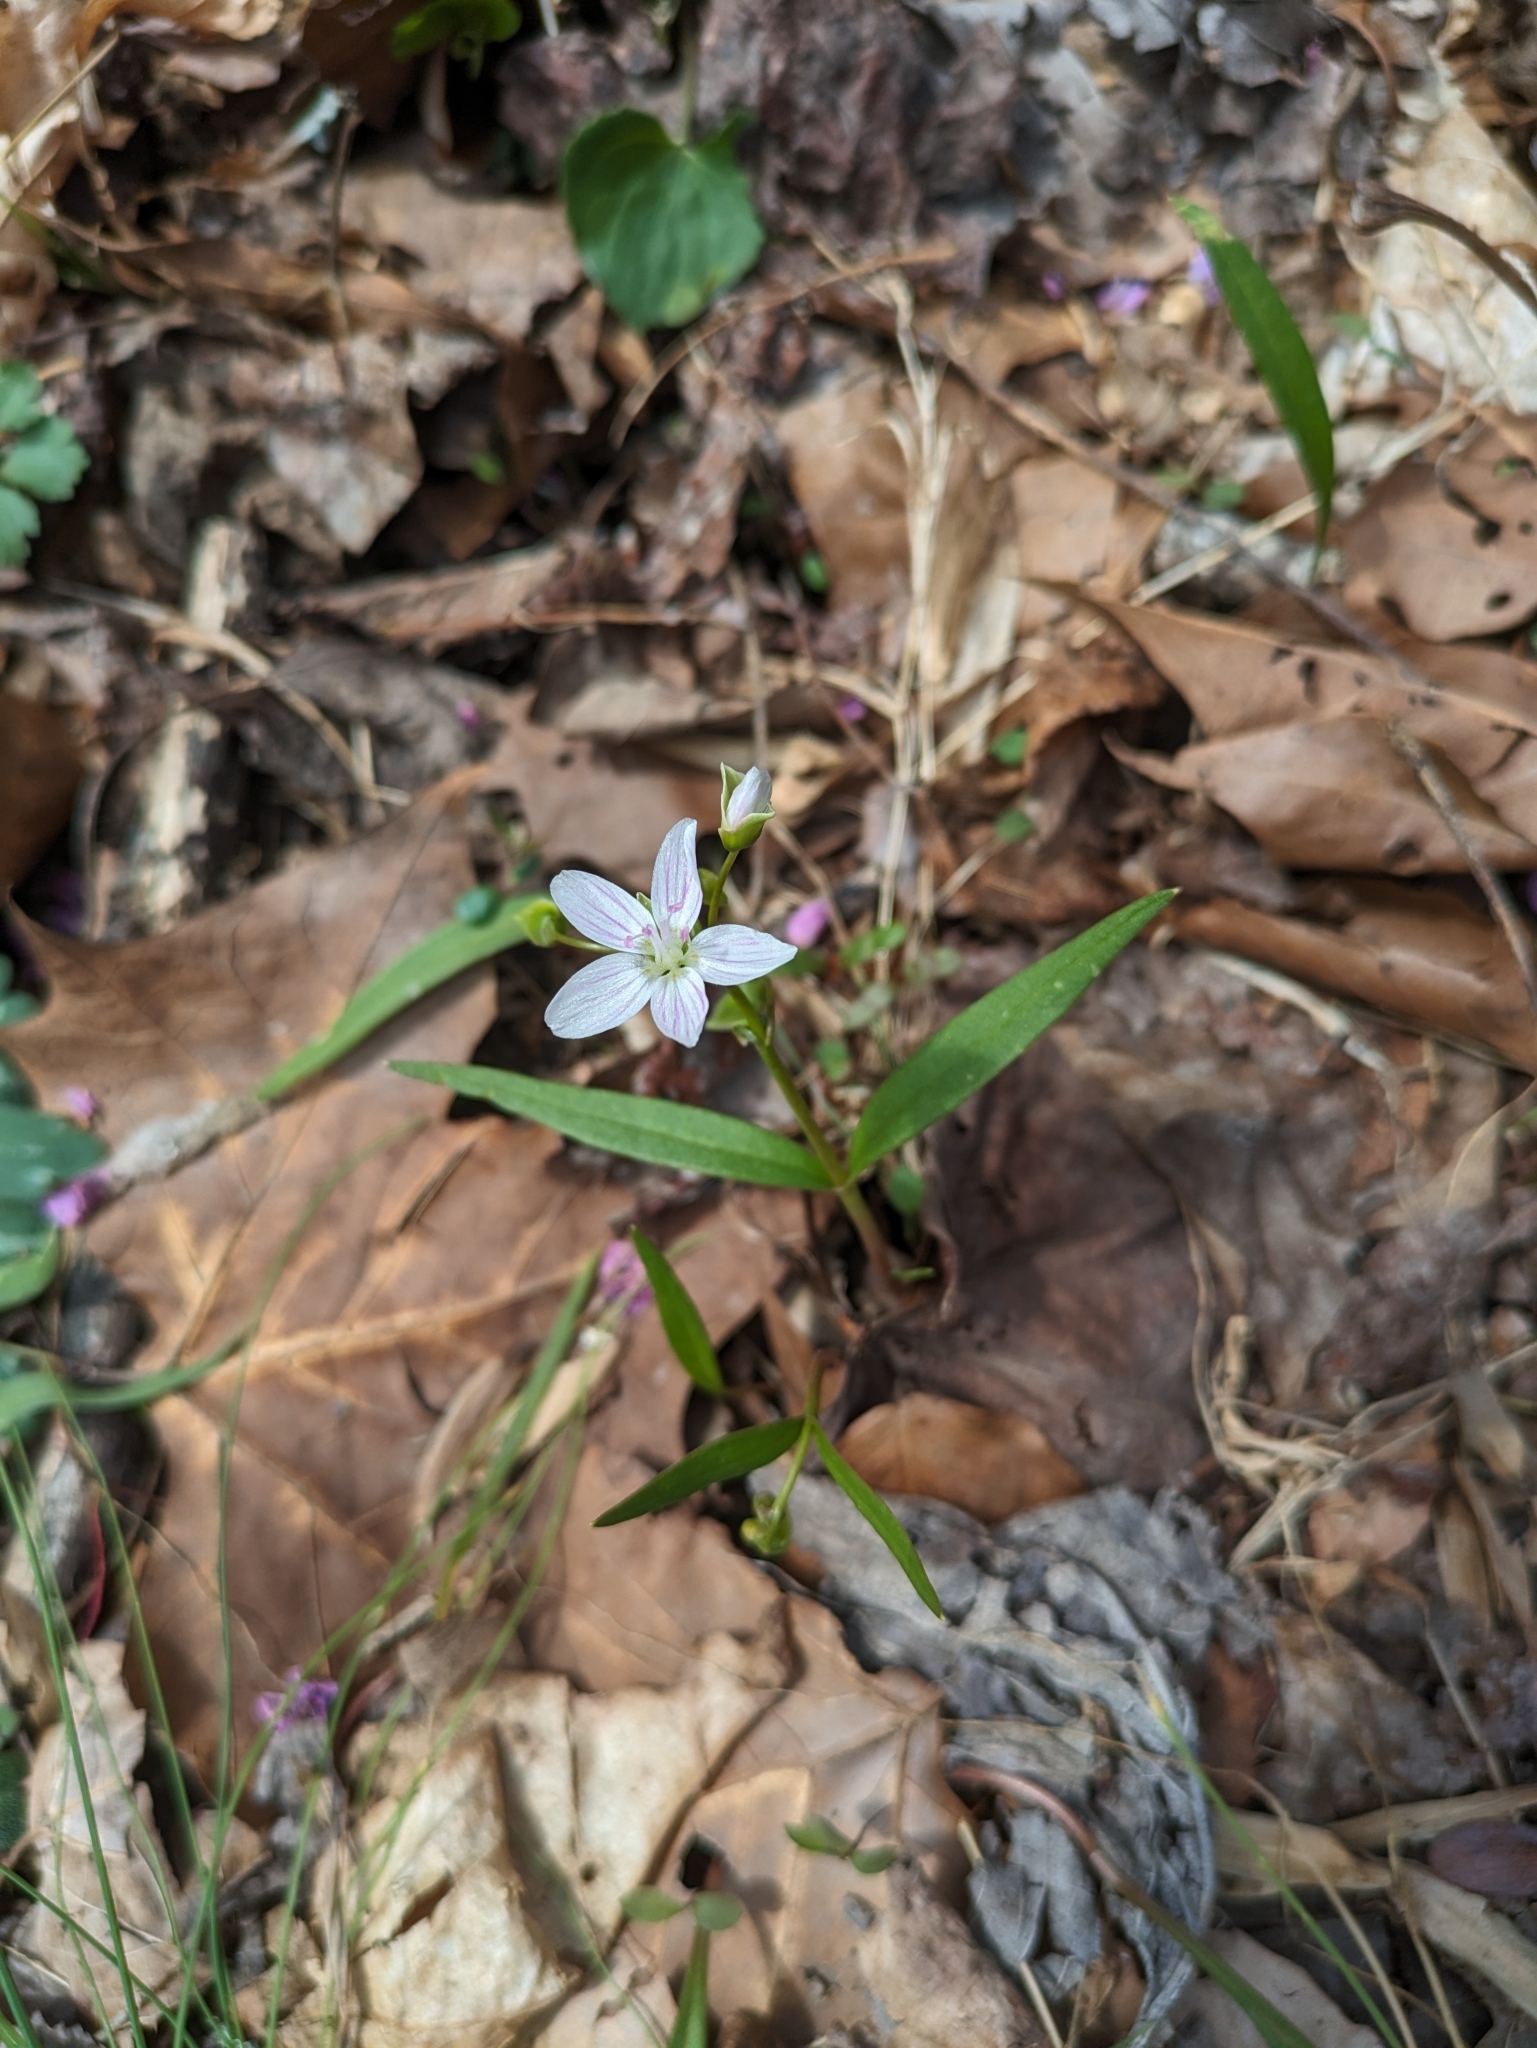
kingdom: Plantae
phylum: Tracheophyta
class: Magnoliopsida
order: Caryophyllales
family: Montiaceae
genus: Claytonia
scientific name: Claytonia virginica
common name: Virginia springbeauty
